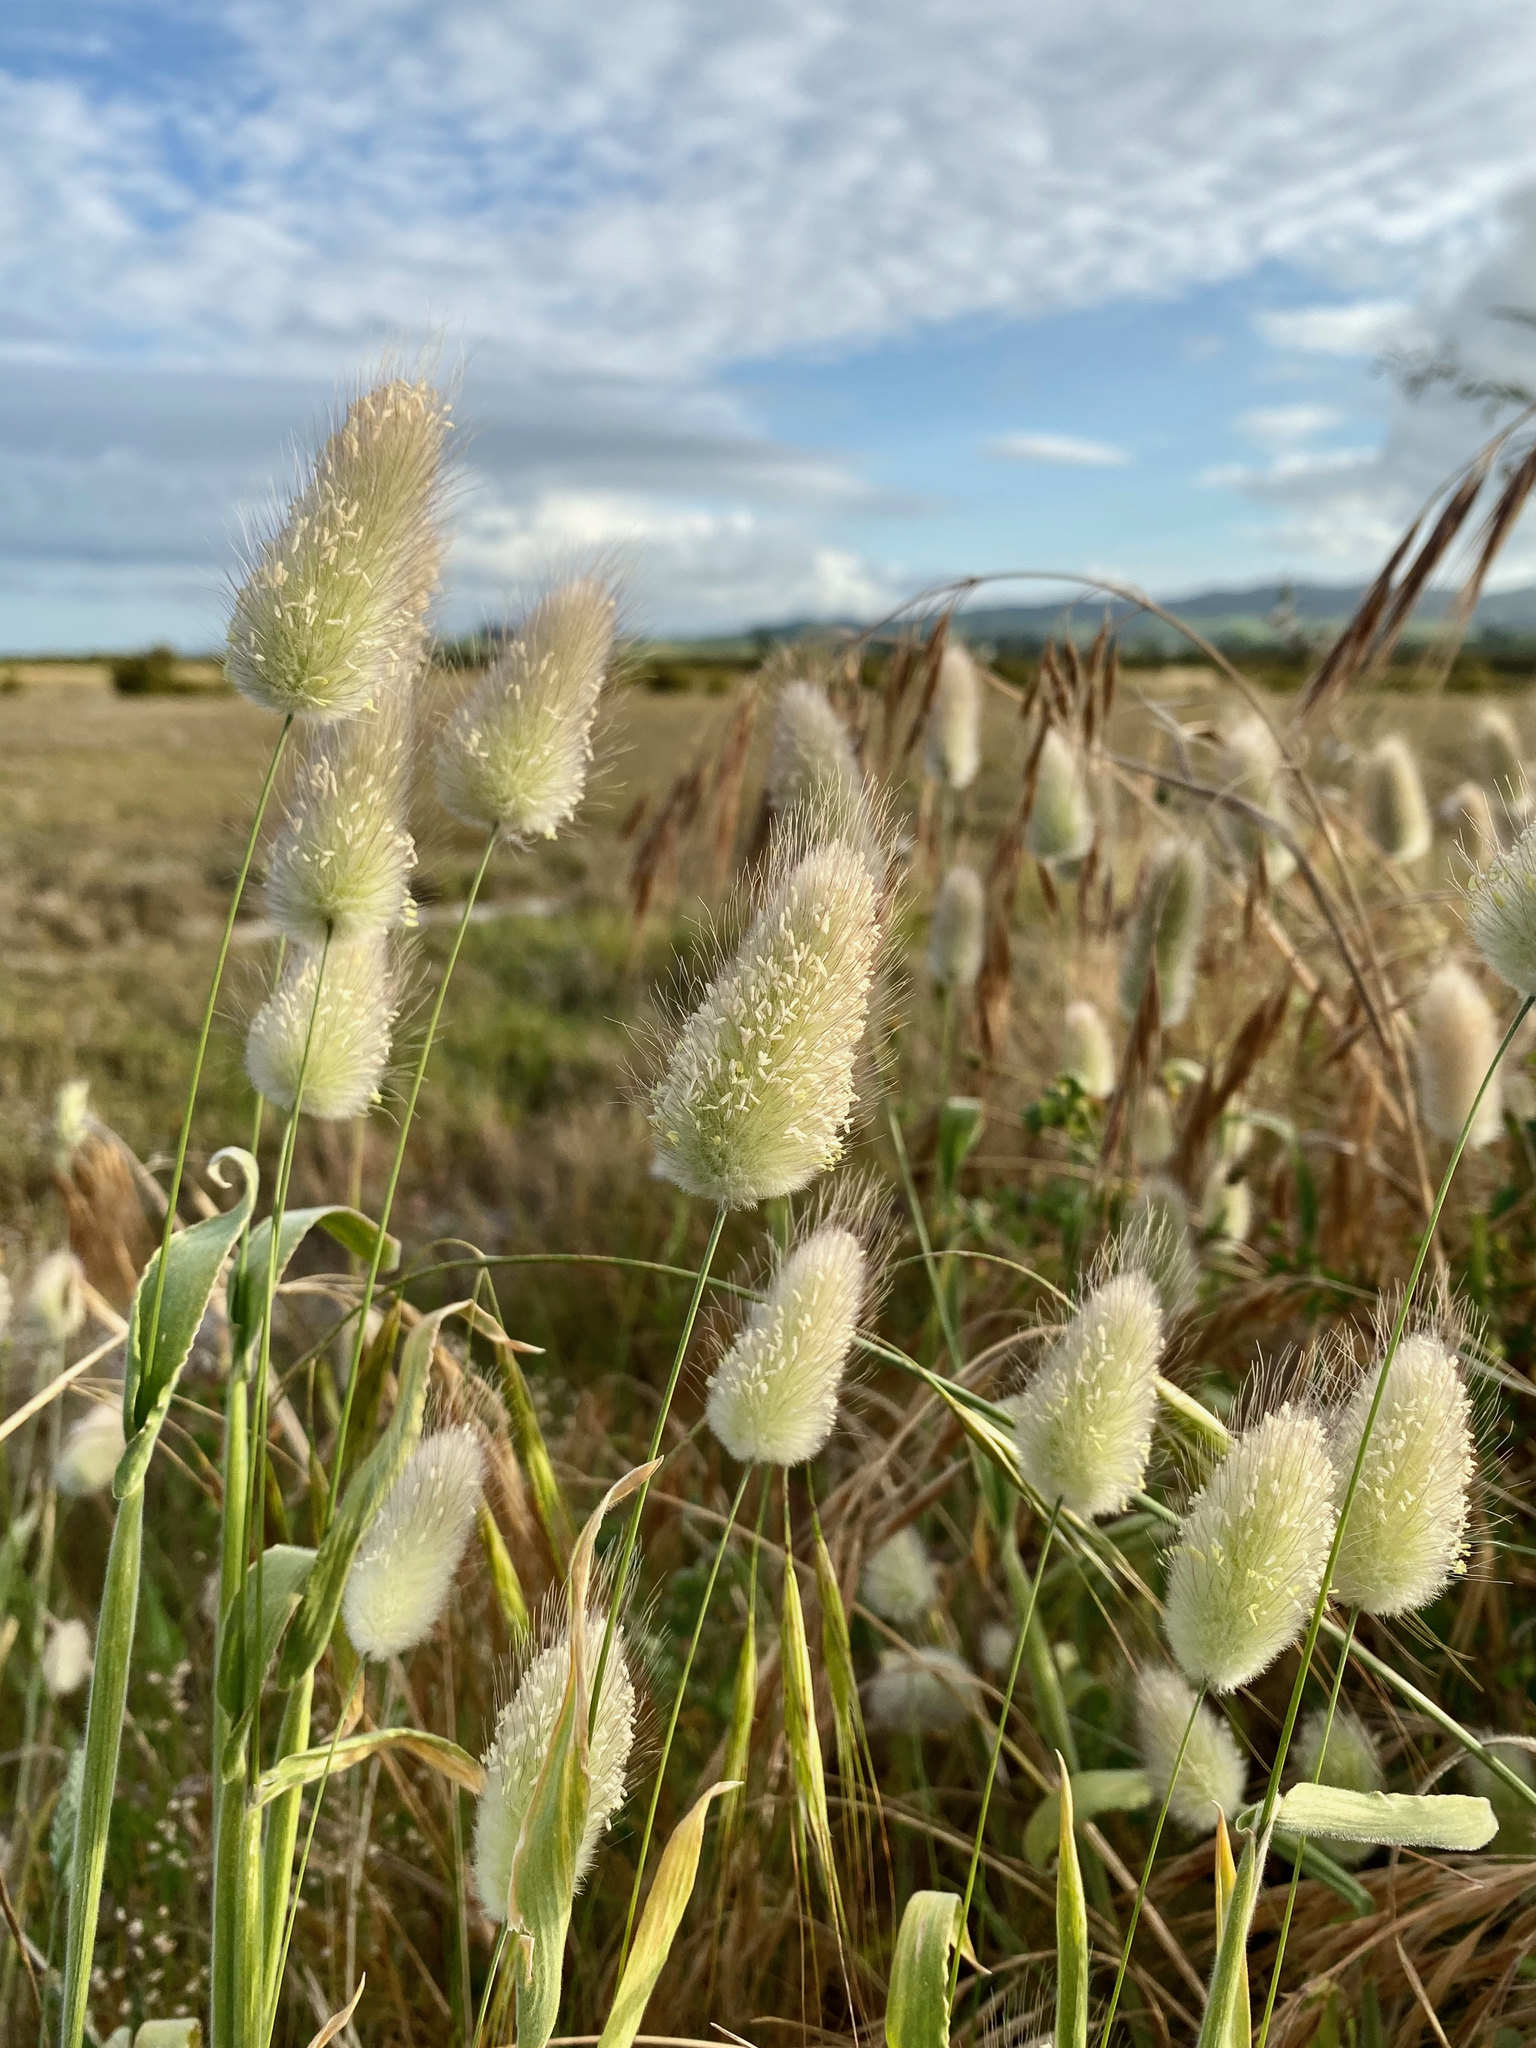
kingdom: Plantae
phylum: Tracheophyta
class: Liliopsida
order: Poales
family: Poaceae
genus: Lagurus
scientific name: Lagurus ovatus
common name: Hare's-tail
